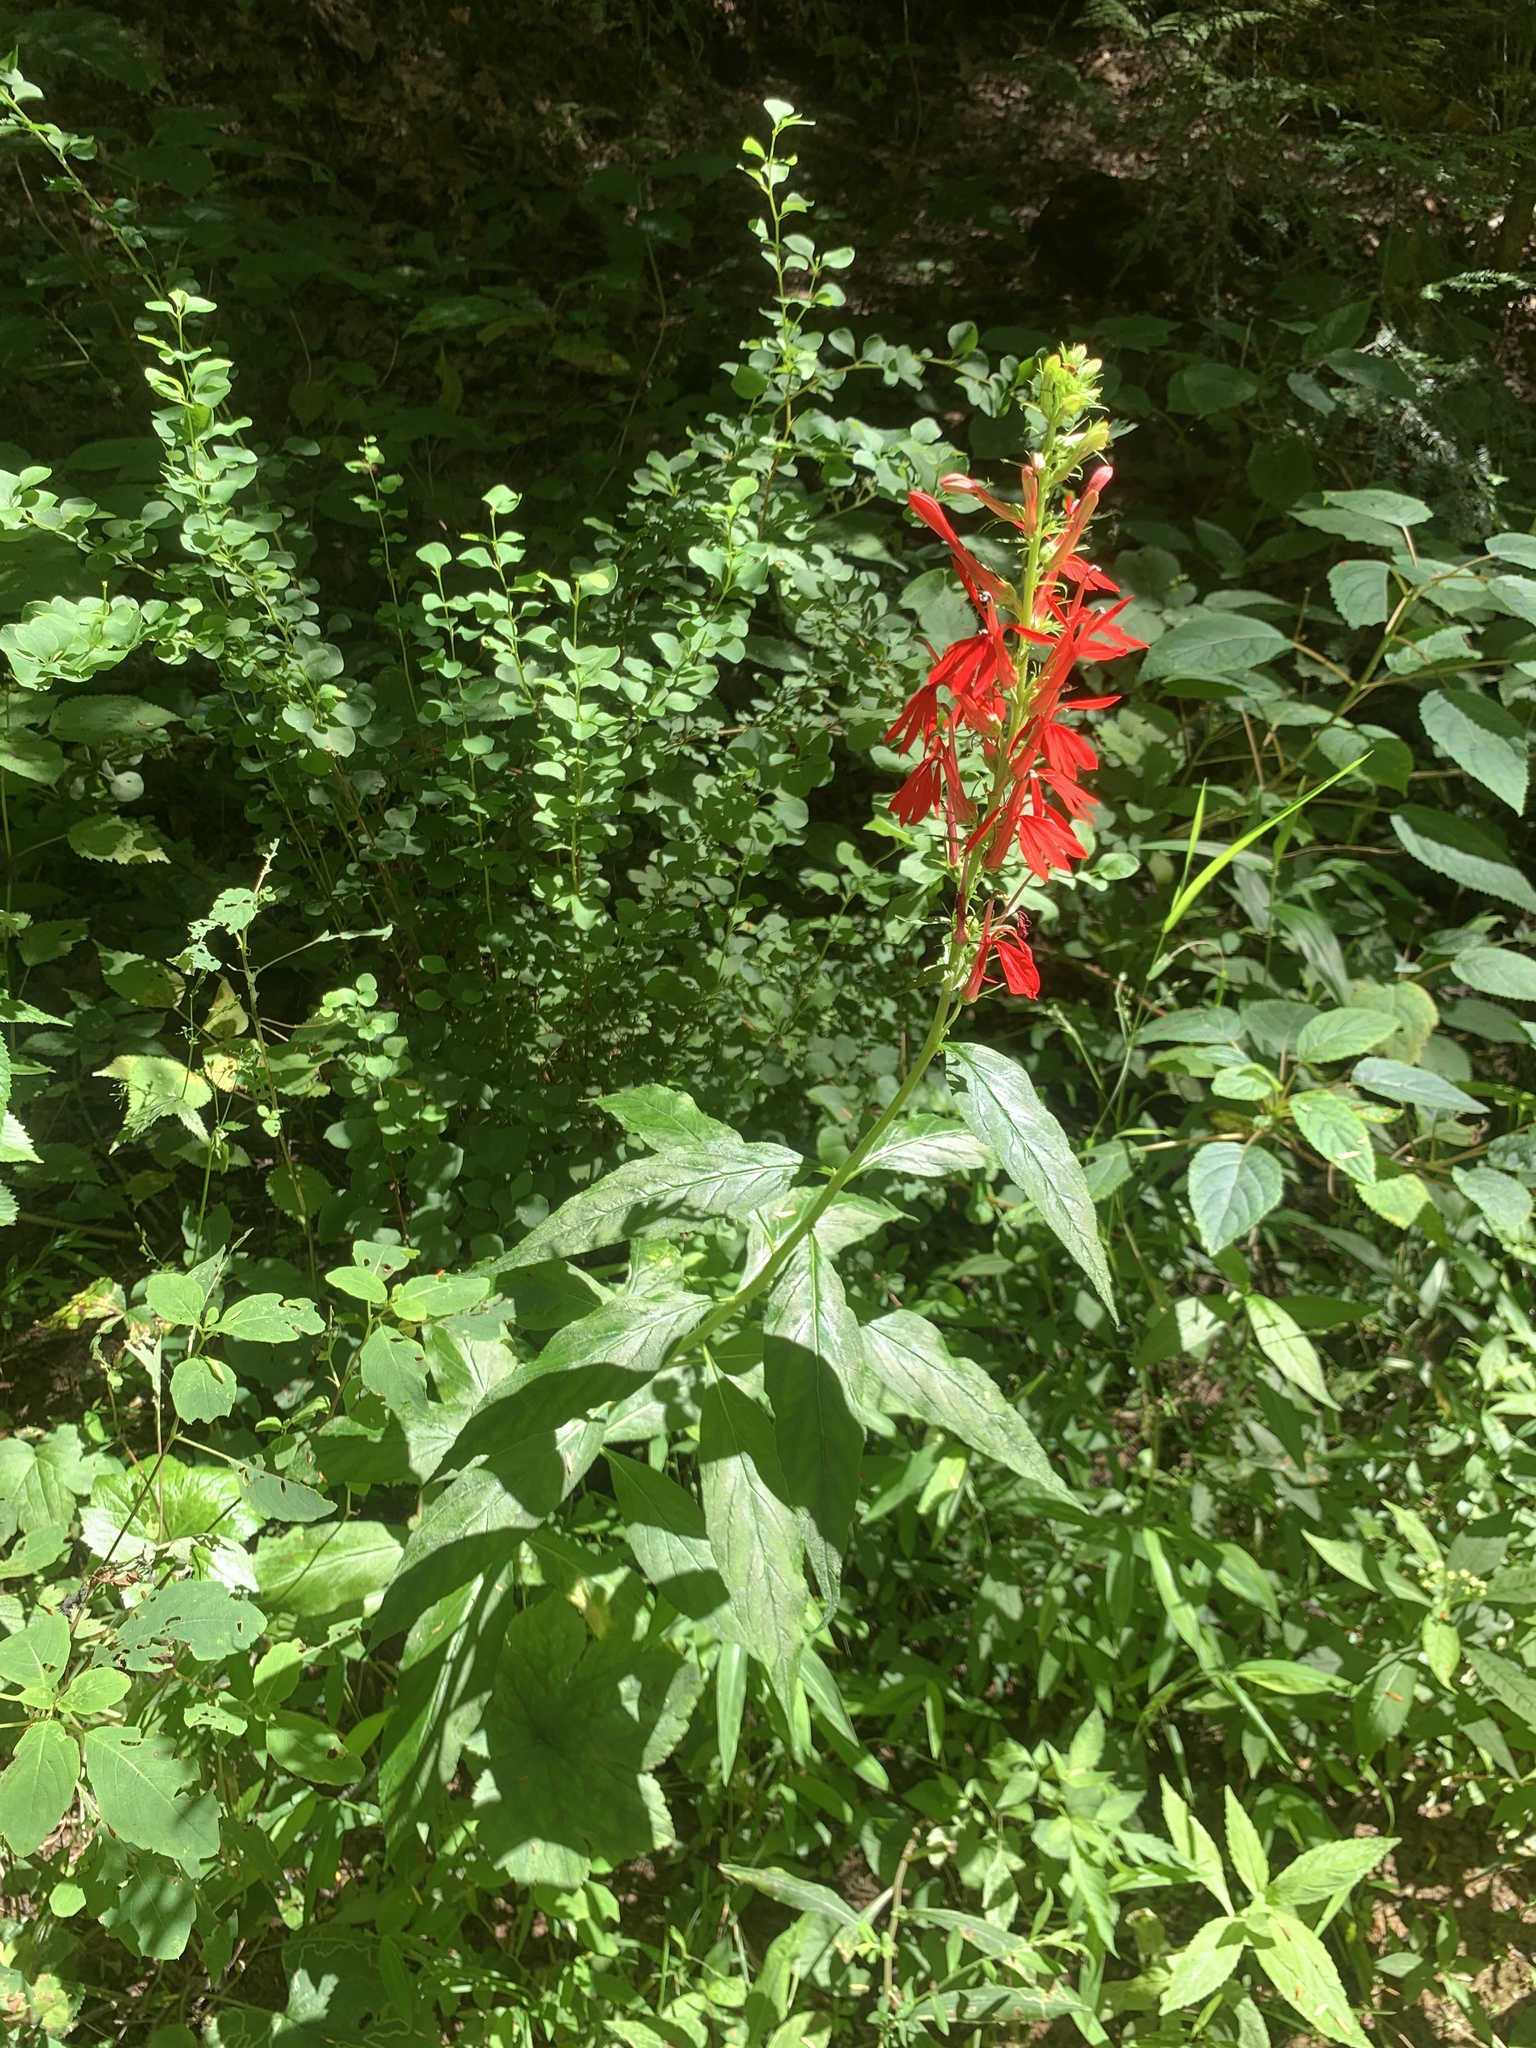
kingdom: Plantae
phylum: Tracheophyta
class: Magnoliopsida
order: Asterales
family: Campanulaceae
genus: Lobelia
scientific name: Lobelia cardinalis
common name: Cardinal flower
